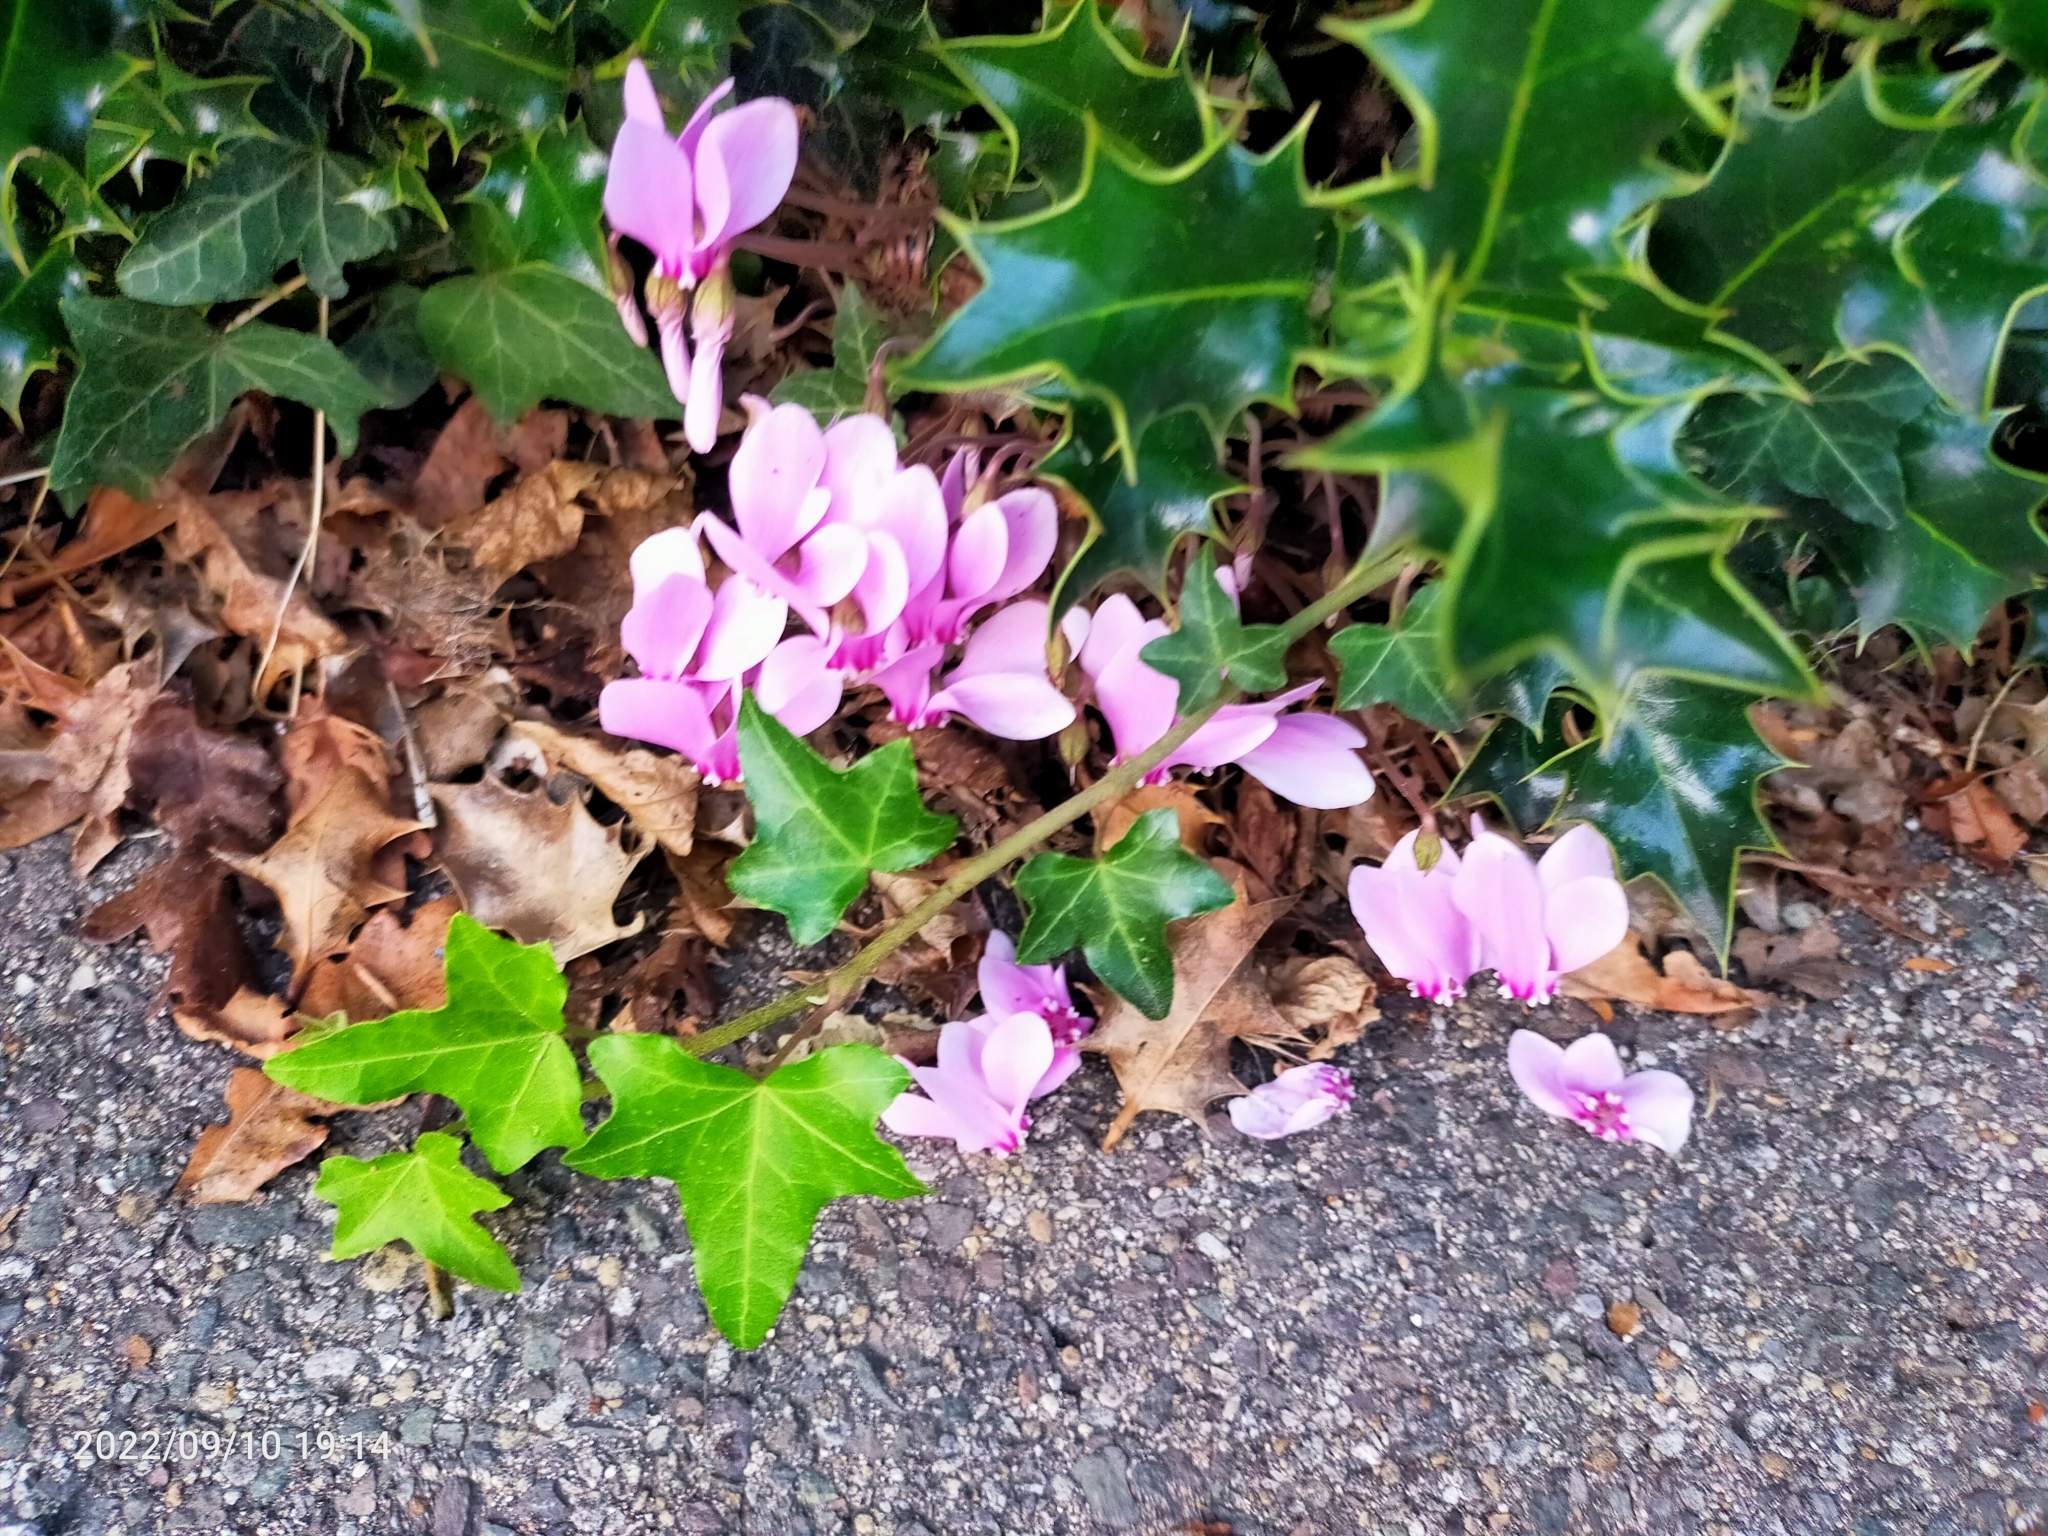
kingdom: Plantae
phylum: Tracheophyta
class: Magnoliopsida
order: Ericales
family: Primulaceae
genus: Cyclamen
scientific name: Cyclamen hederifolium
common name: Sowbread
